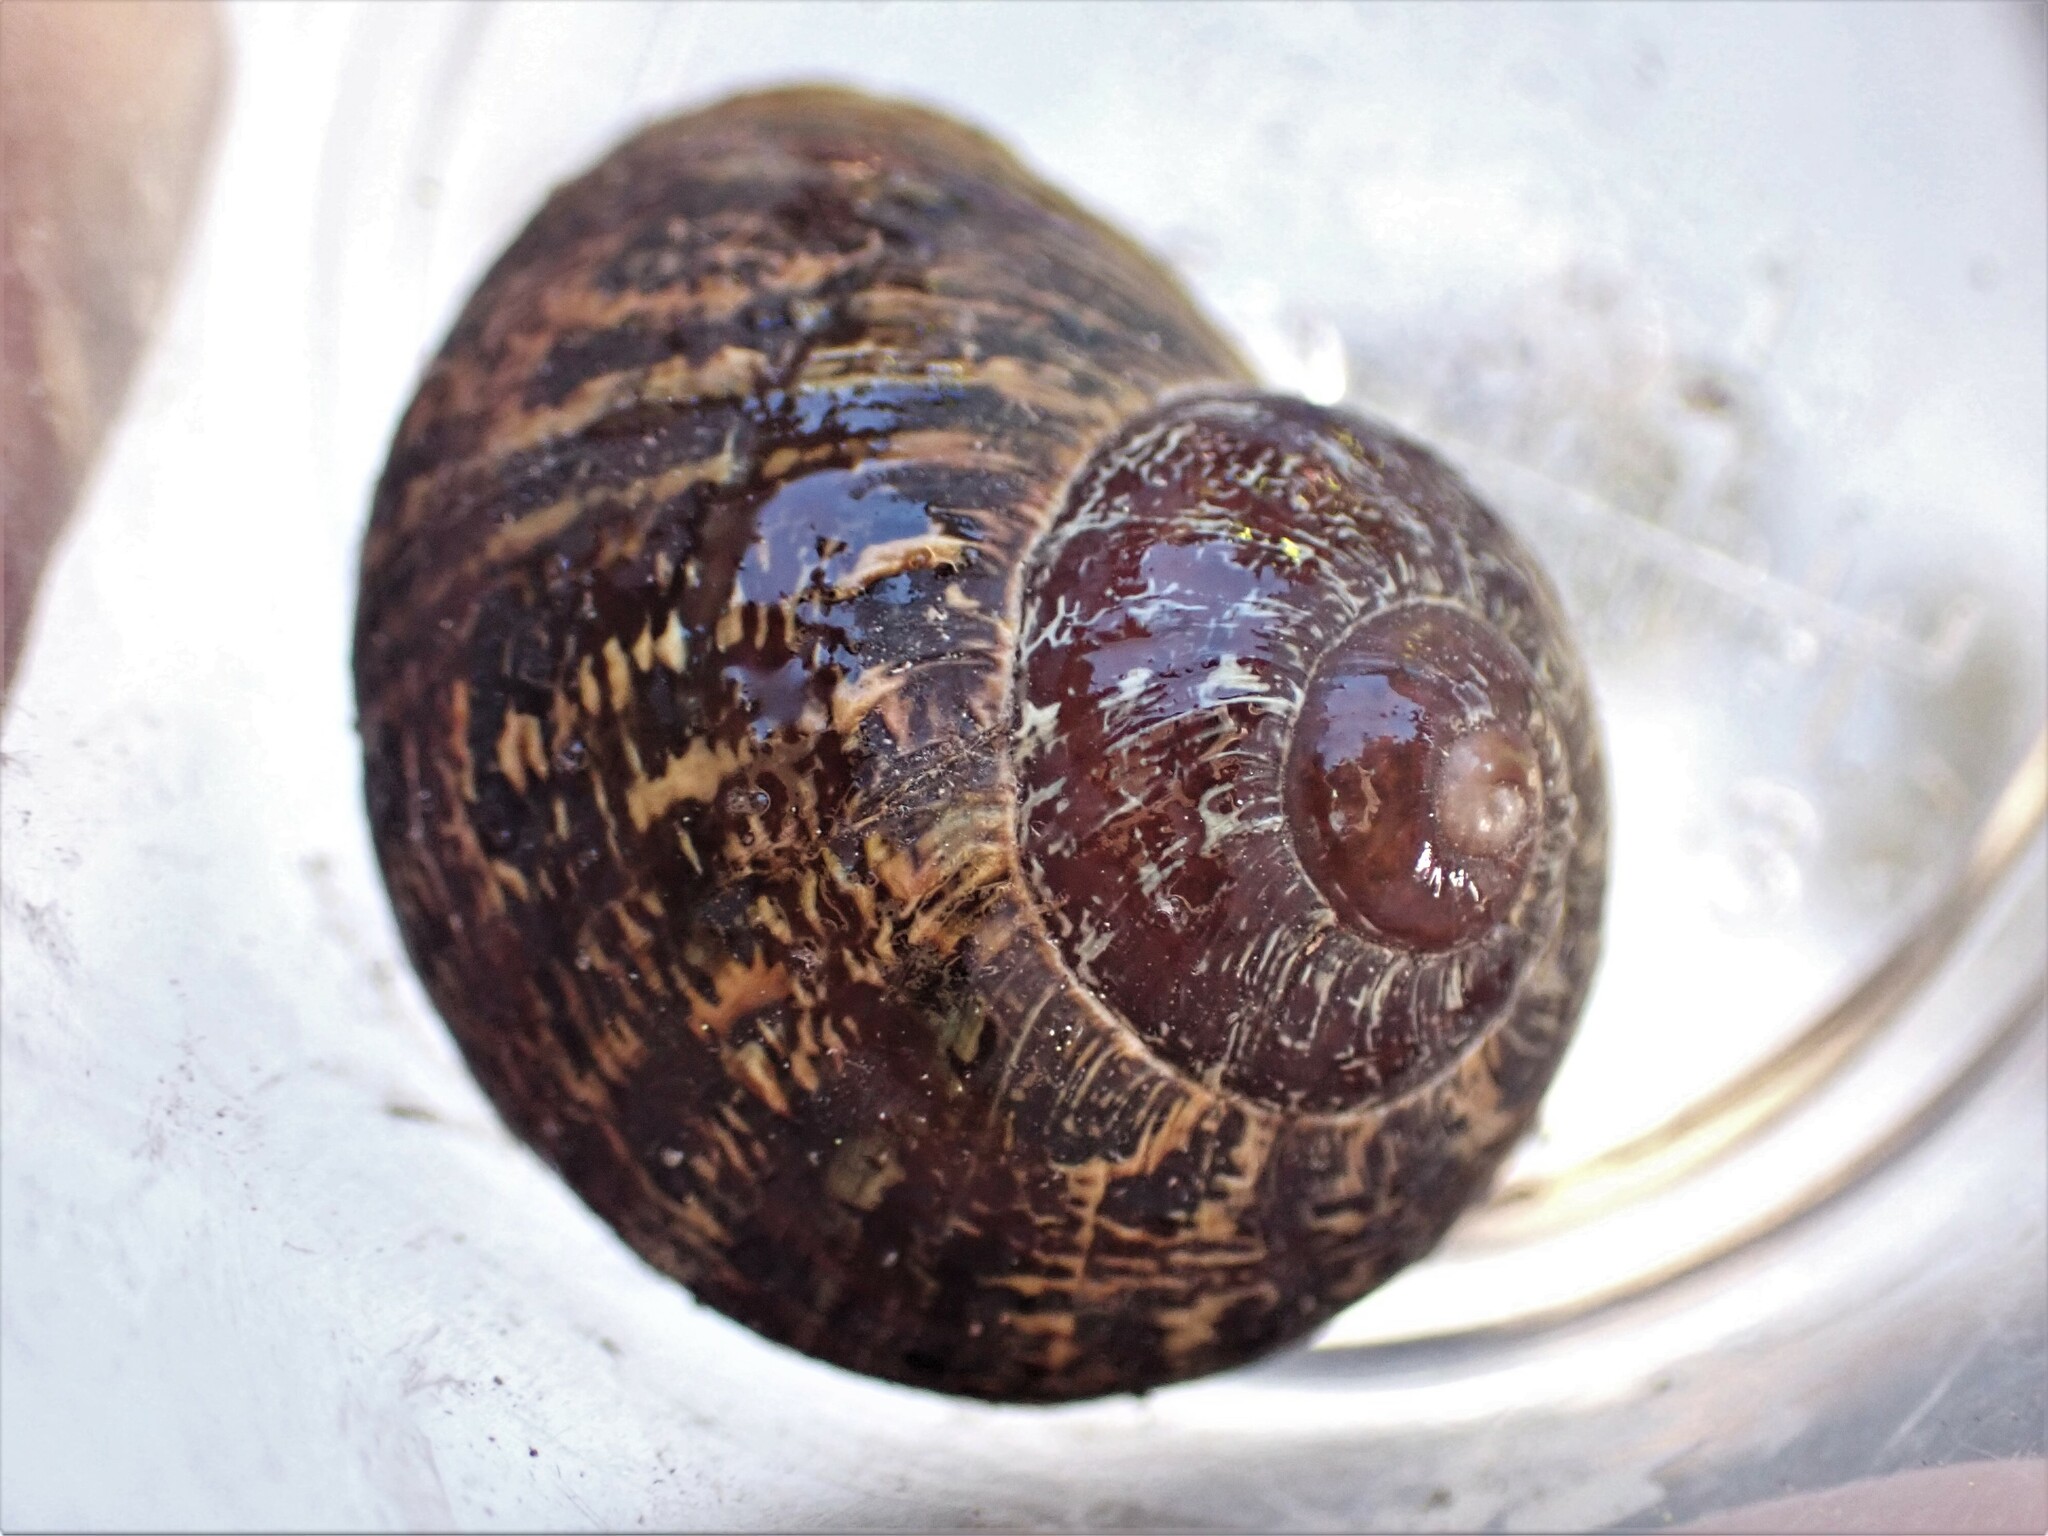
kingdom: Animalia
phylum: Mollusca
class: Gastropoda
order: Stylommatophora
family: Helicidae
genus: Cornu
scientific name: Cornu aspersum
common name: Brown garden snail
